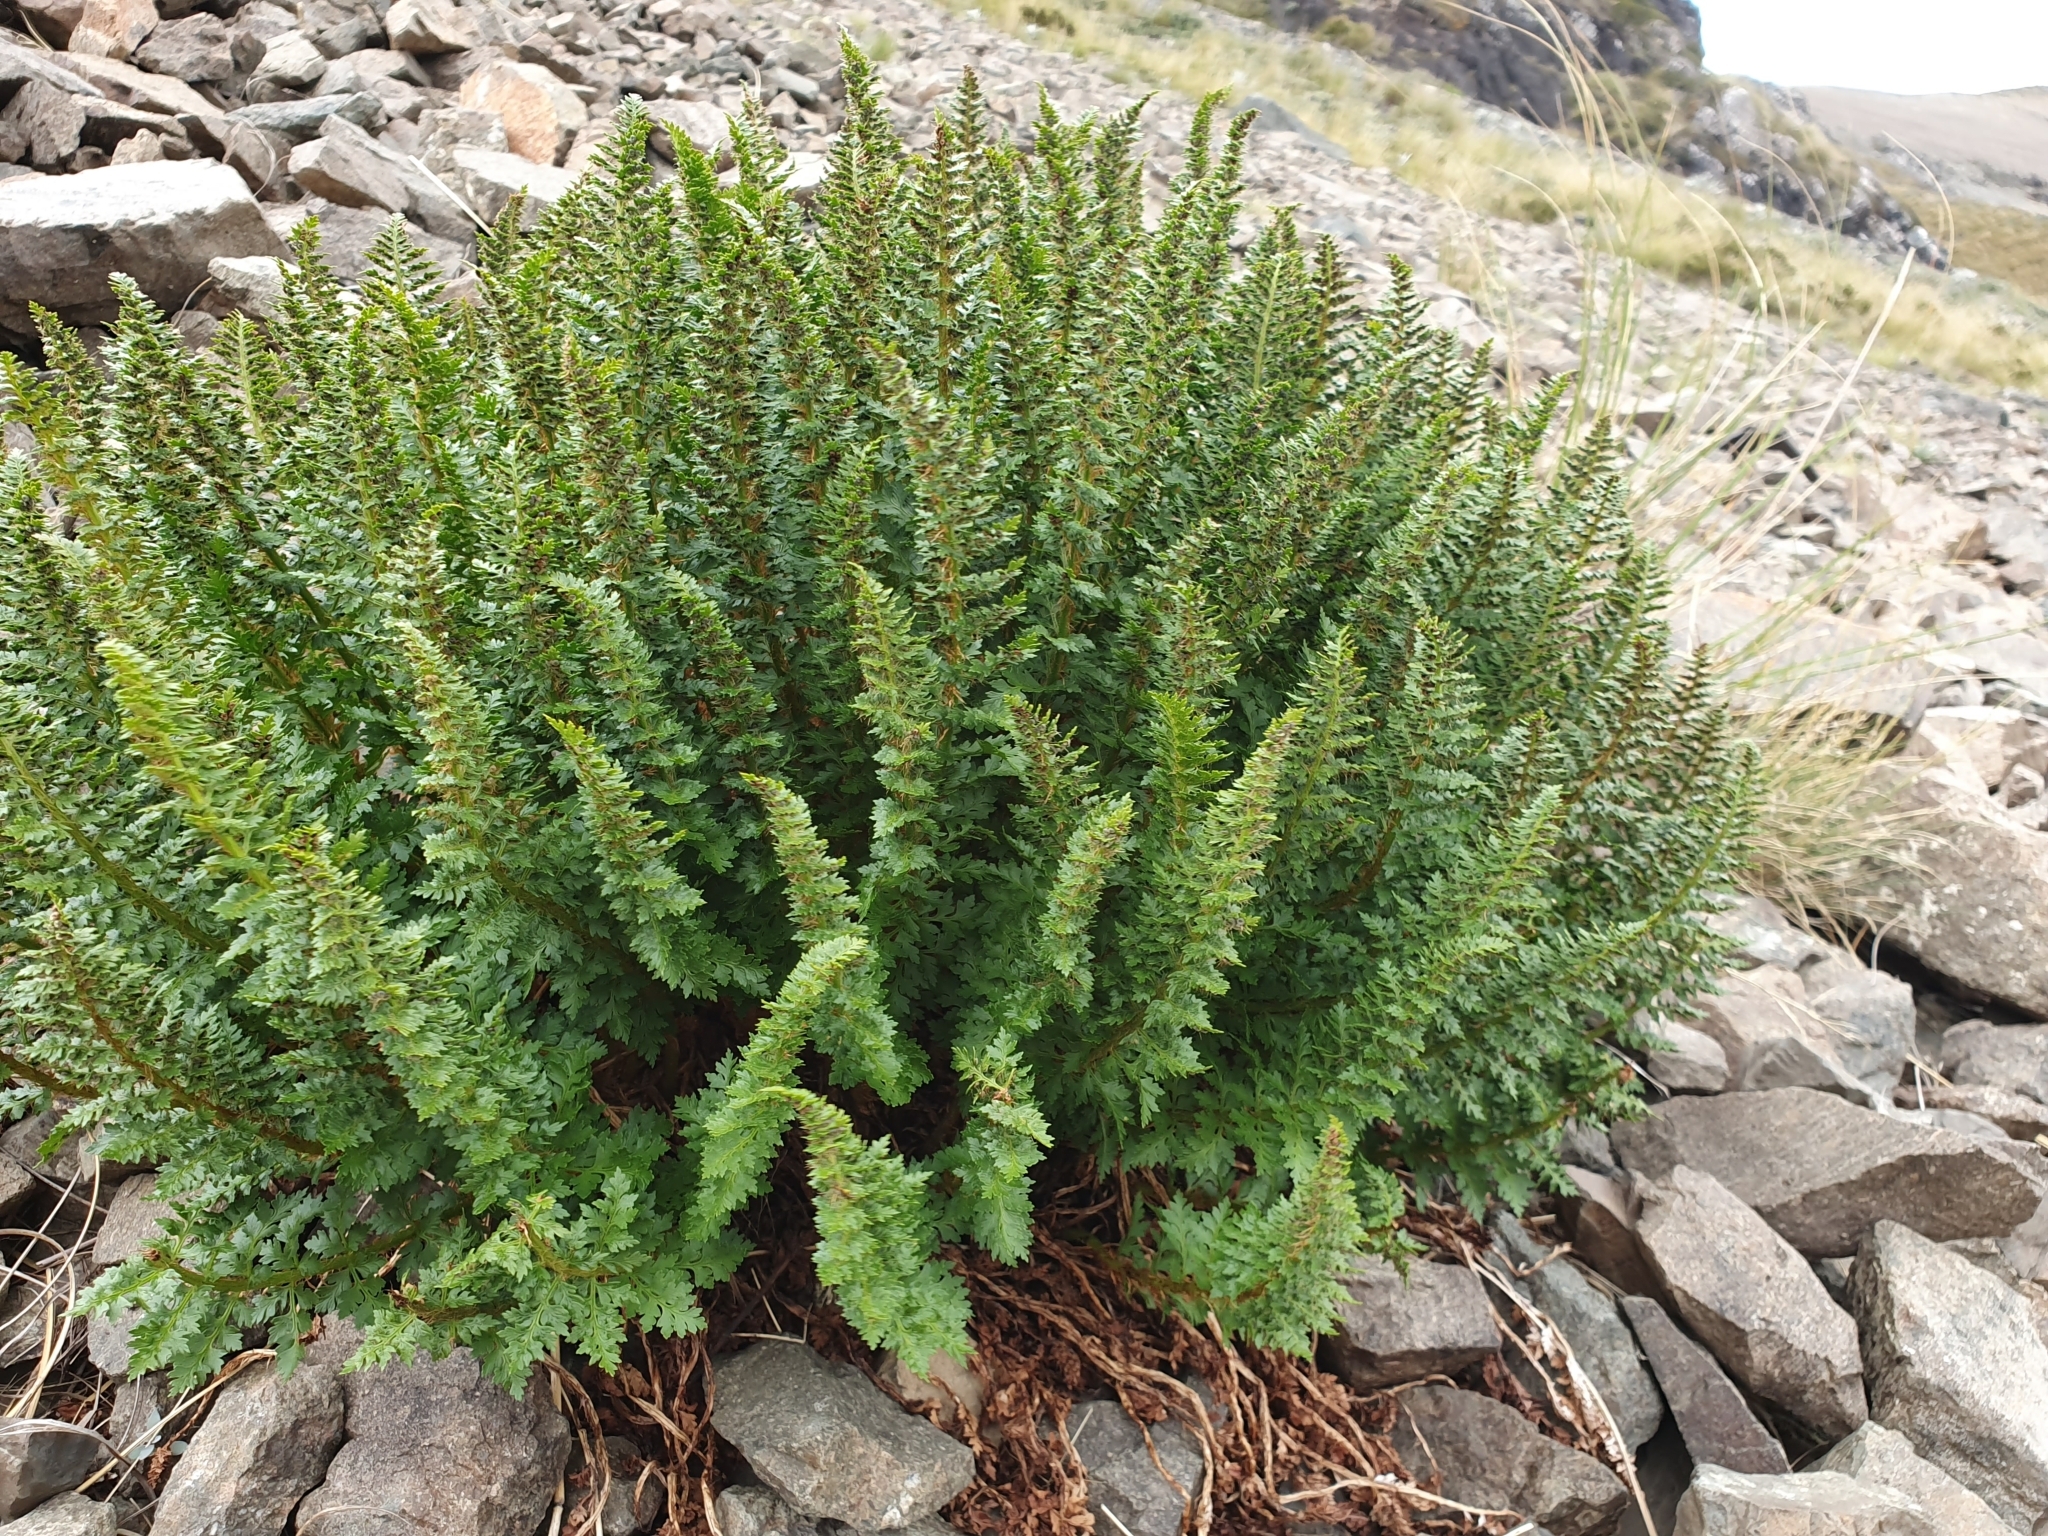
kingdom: Plantae
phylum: Tracheophyta
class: Polypodiopsida
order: Polypodiales
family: Dryopteridaceae
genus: Polystichum
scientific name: Polystichum cystostegia
